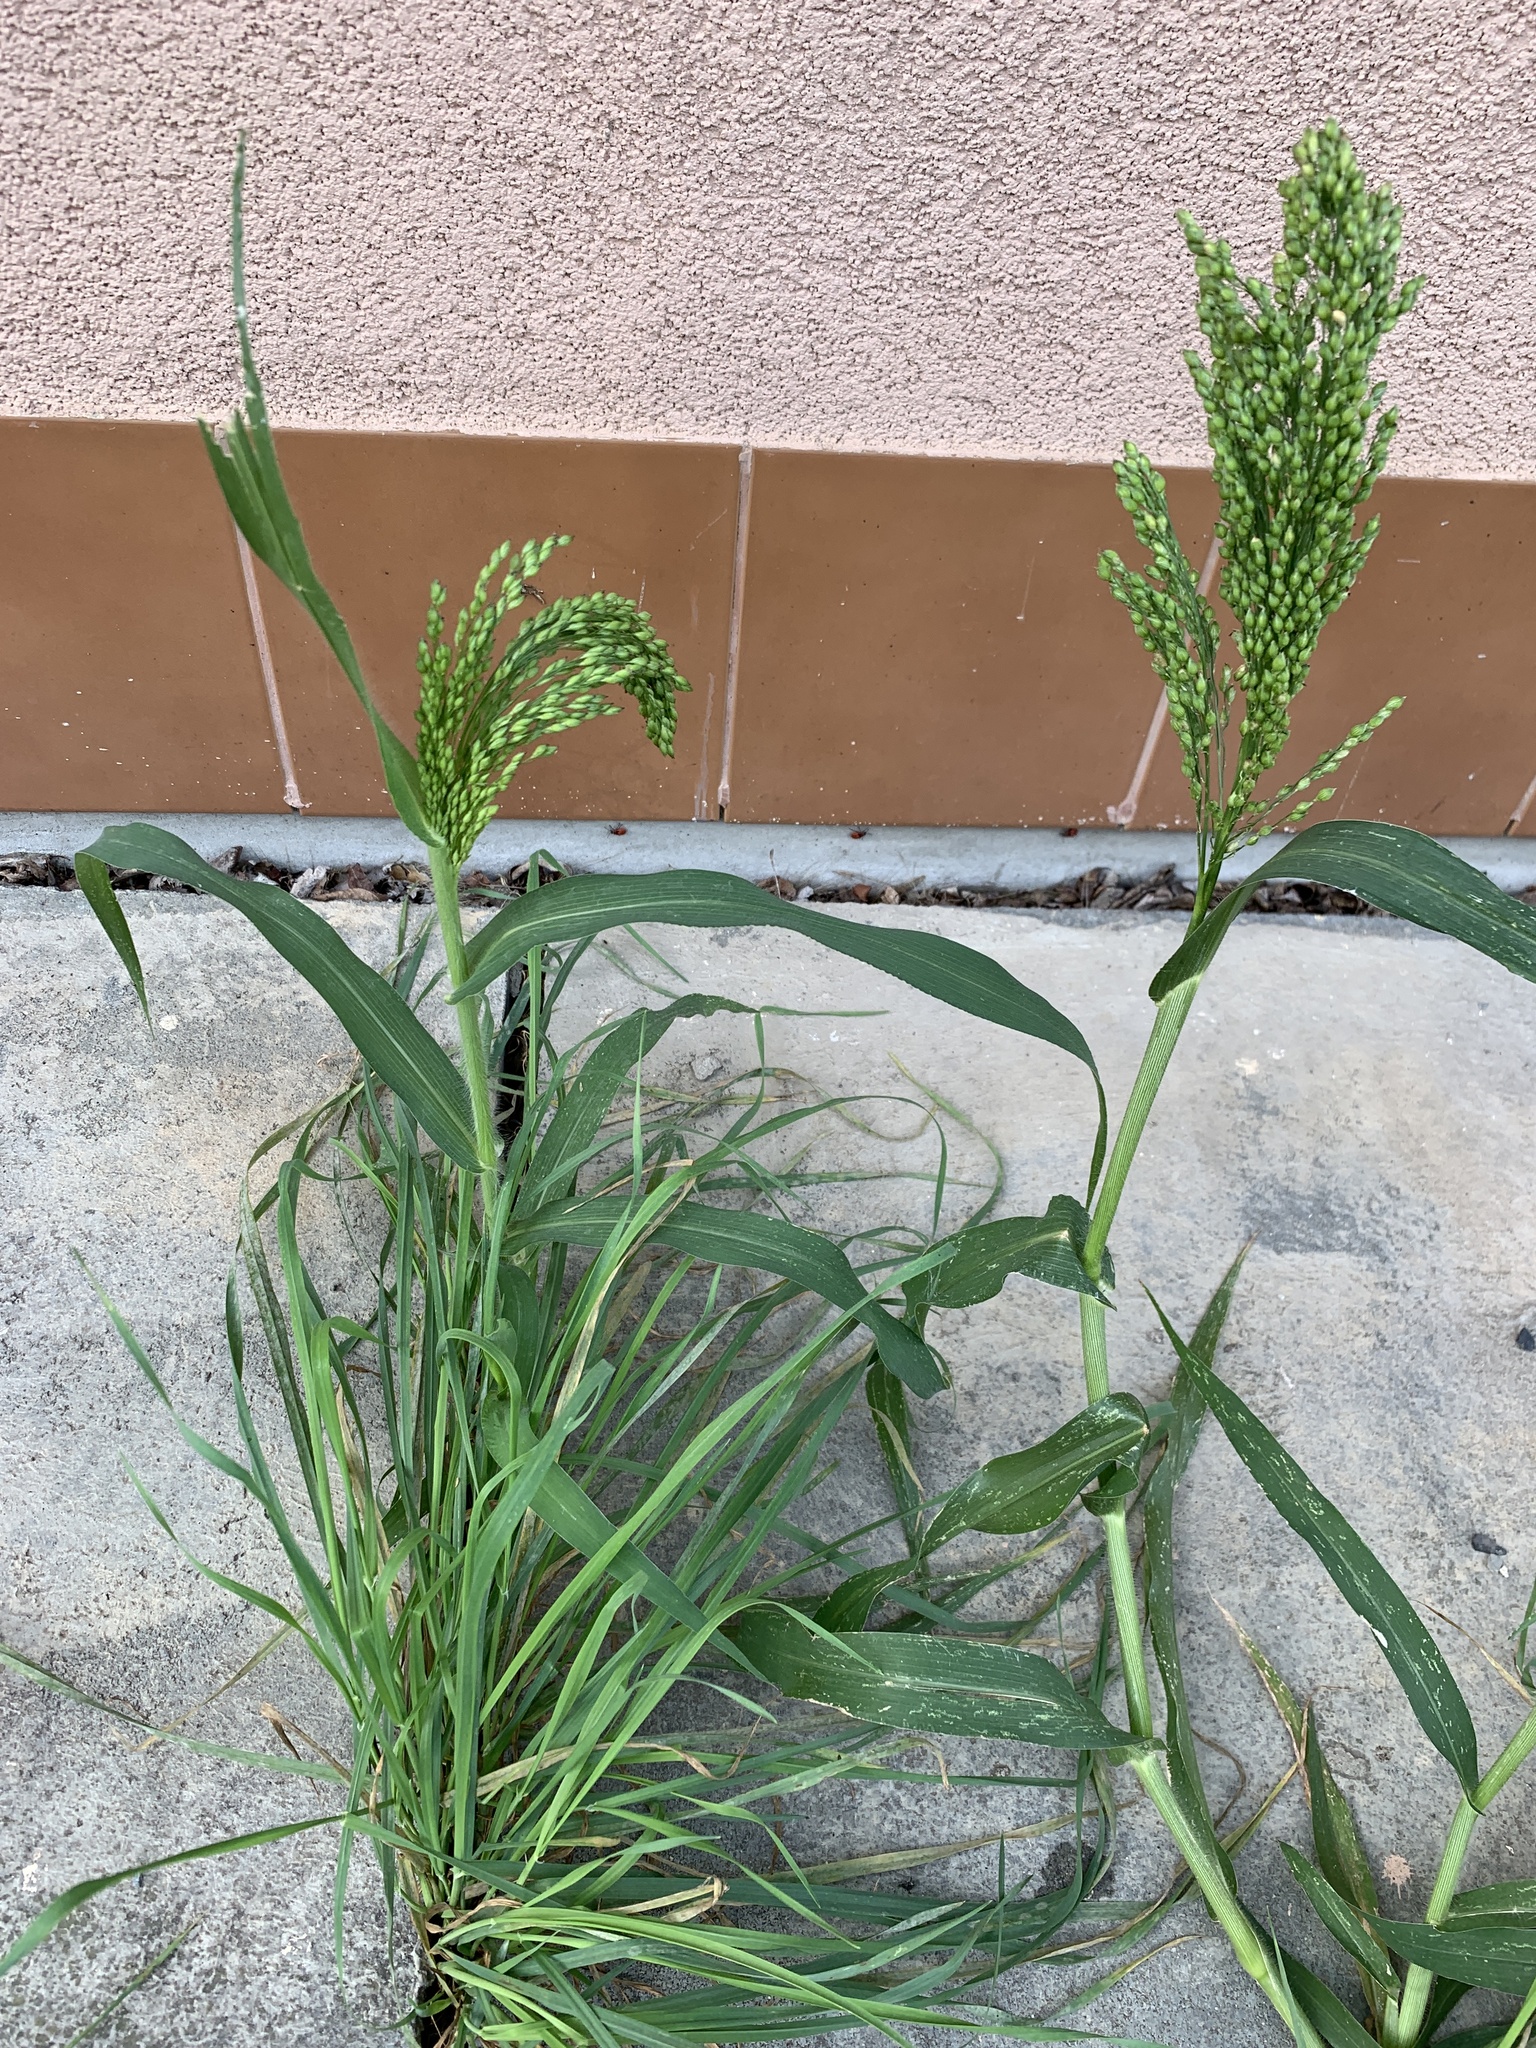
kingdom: Plantae
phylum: Tracheophyta
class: Liliopsida
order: Poales
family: Poaceae
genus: Panicum
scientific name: Panicum miliaceum
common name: Common millet
